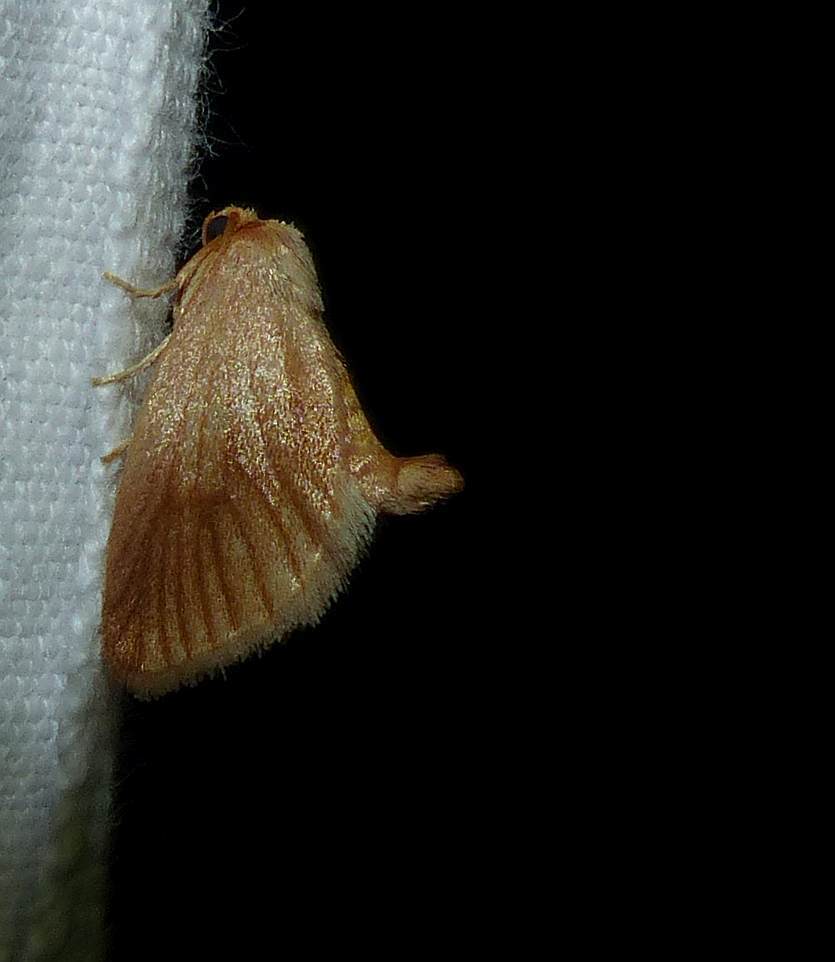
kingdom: Animalia
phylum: Arthropoda
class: Insecta
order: Lepidoptera
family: Limacodidae
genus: Tortricidia
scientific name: Tortricidia testacea
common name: Early button slug moth
